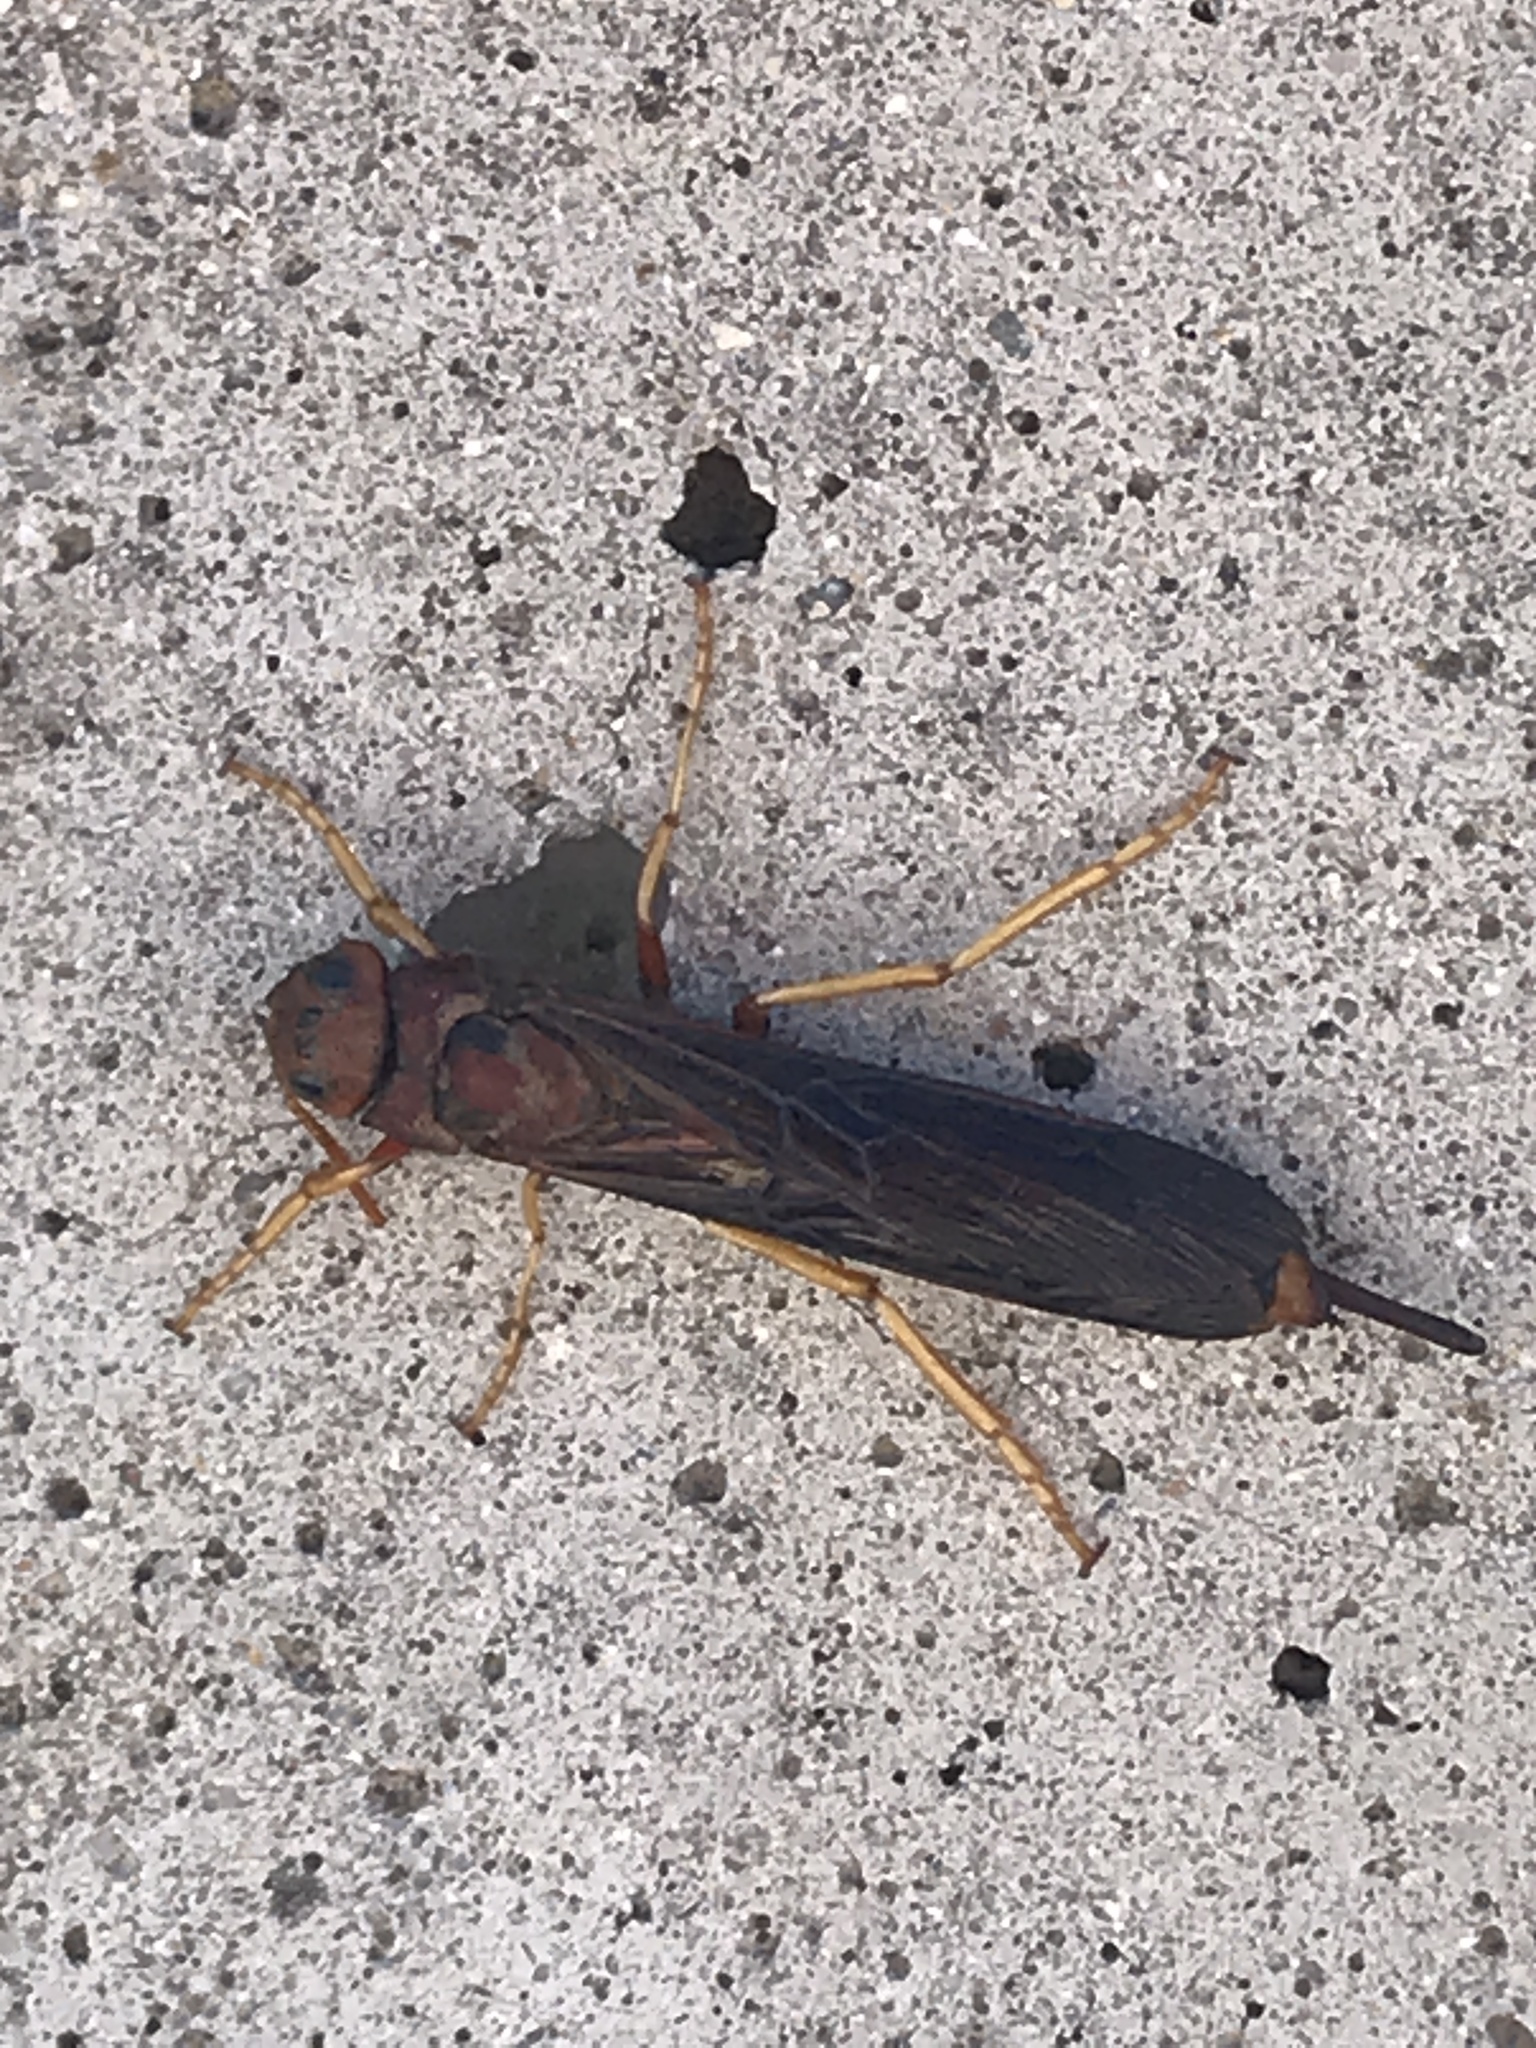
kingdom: Animalia
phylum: Arthropoda
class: Insecta
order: Hymenoptera
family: Siricidae
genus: Tremex
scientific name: Tremex columba
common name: Wasp
